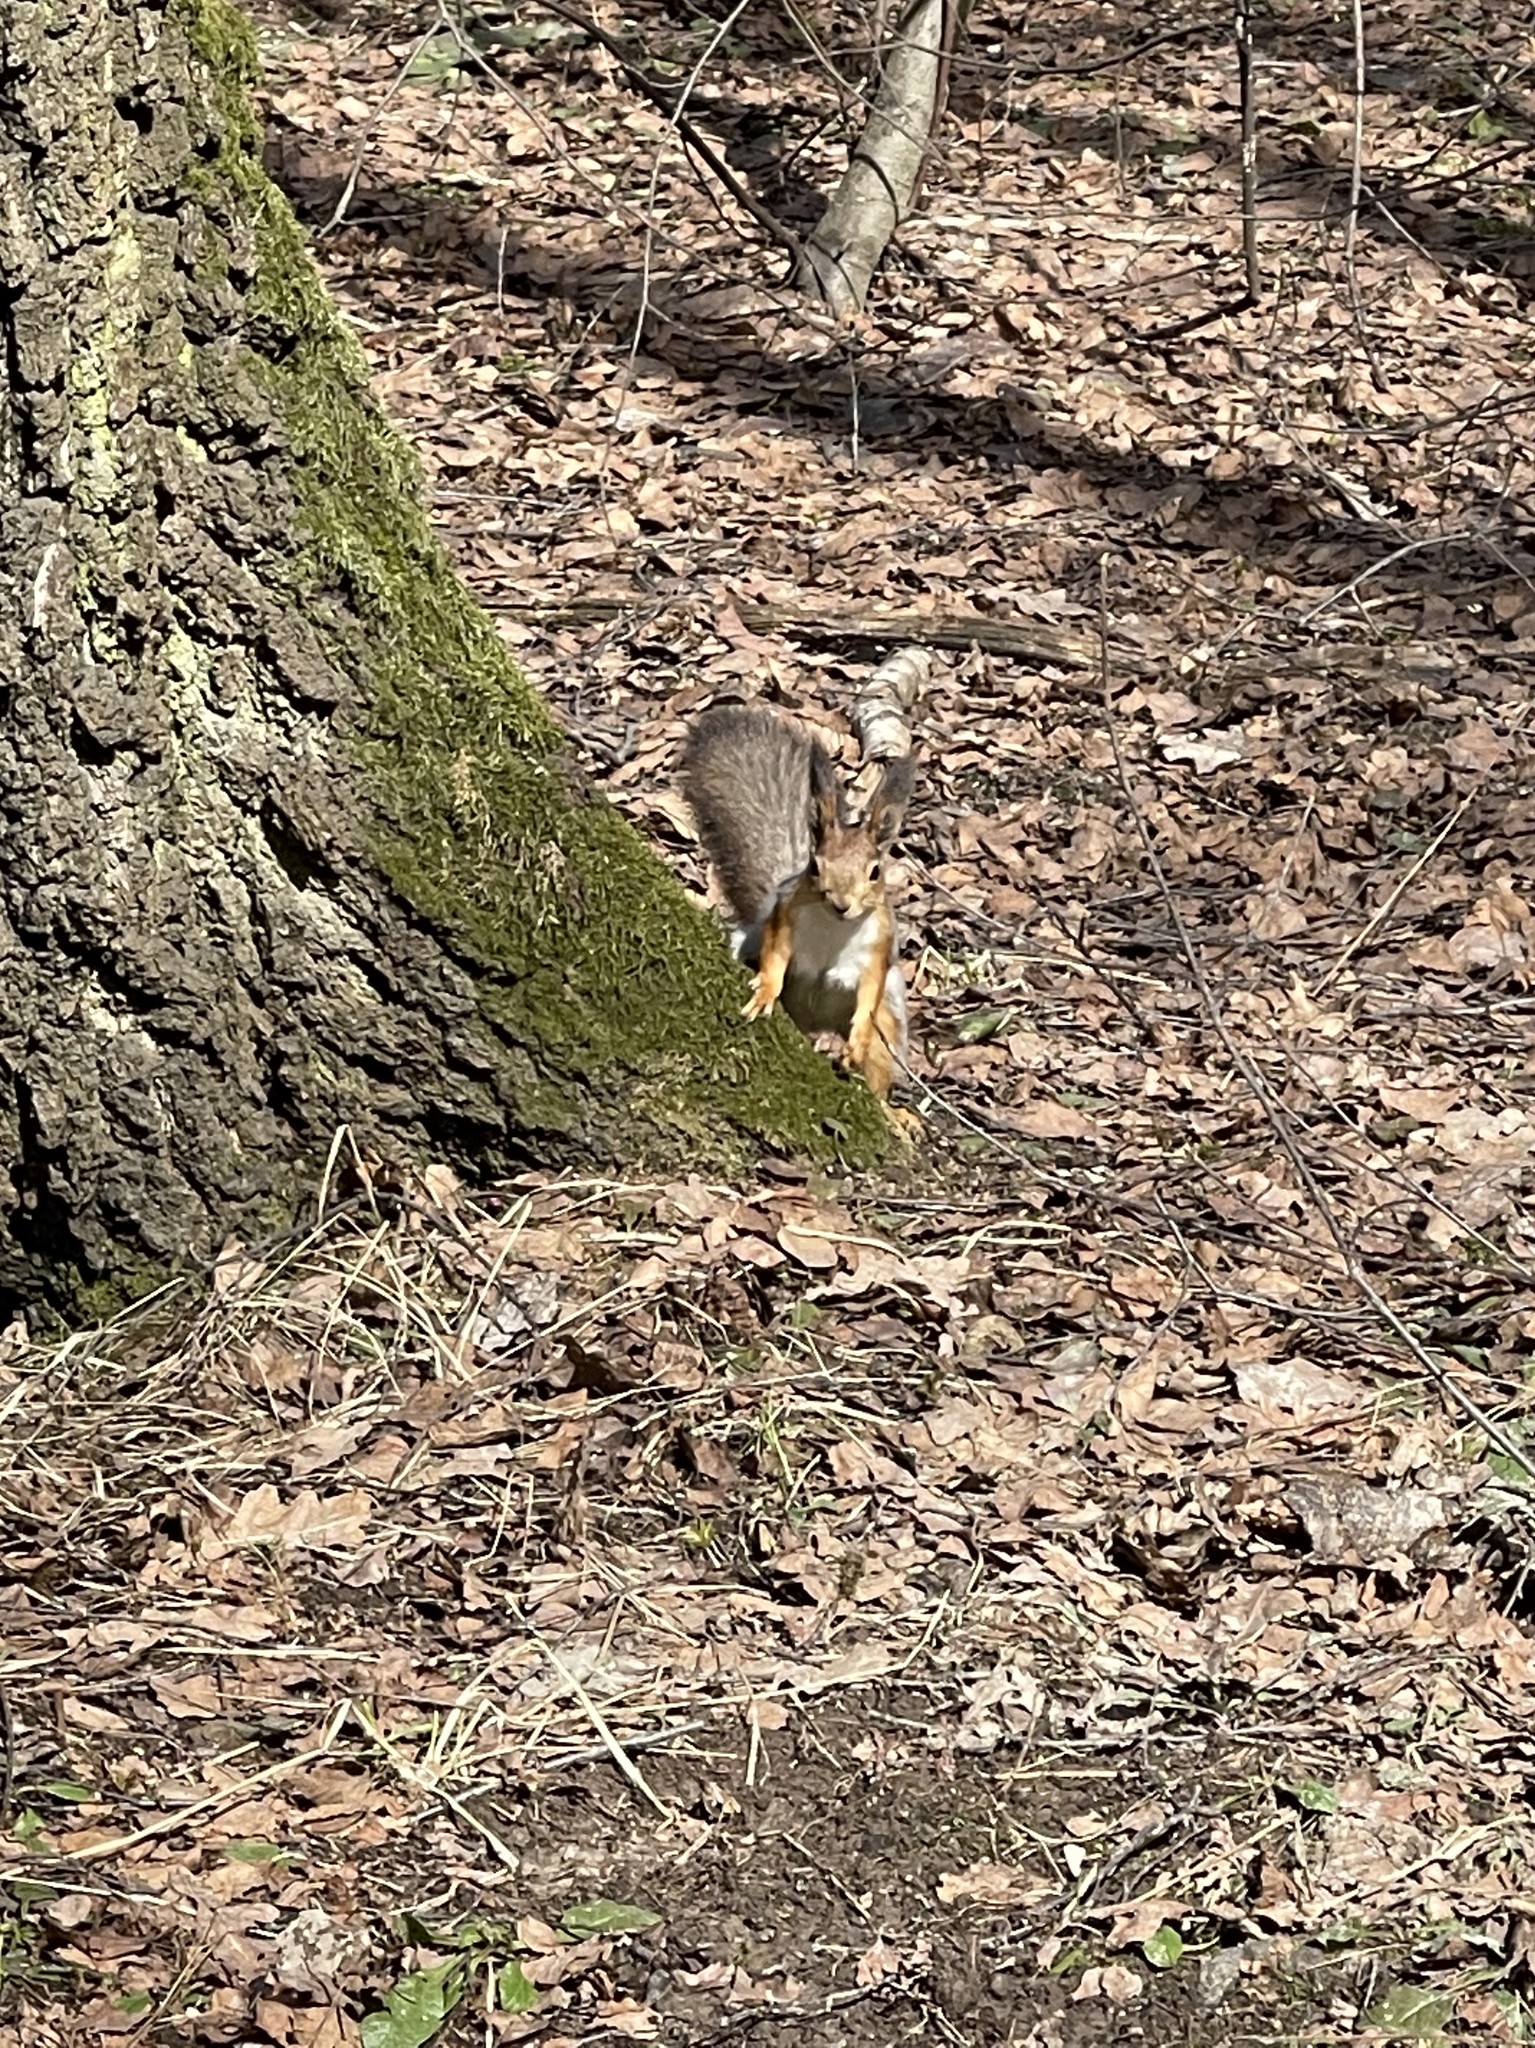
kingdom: Animalia
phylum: Chordata
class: Mammalia
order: Rodentia
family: Sciuridae
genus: Sciurus
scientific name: Sciurus vulgaris
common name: Eurasian red squirrel
